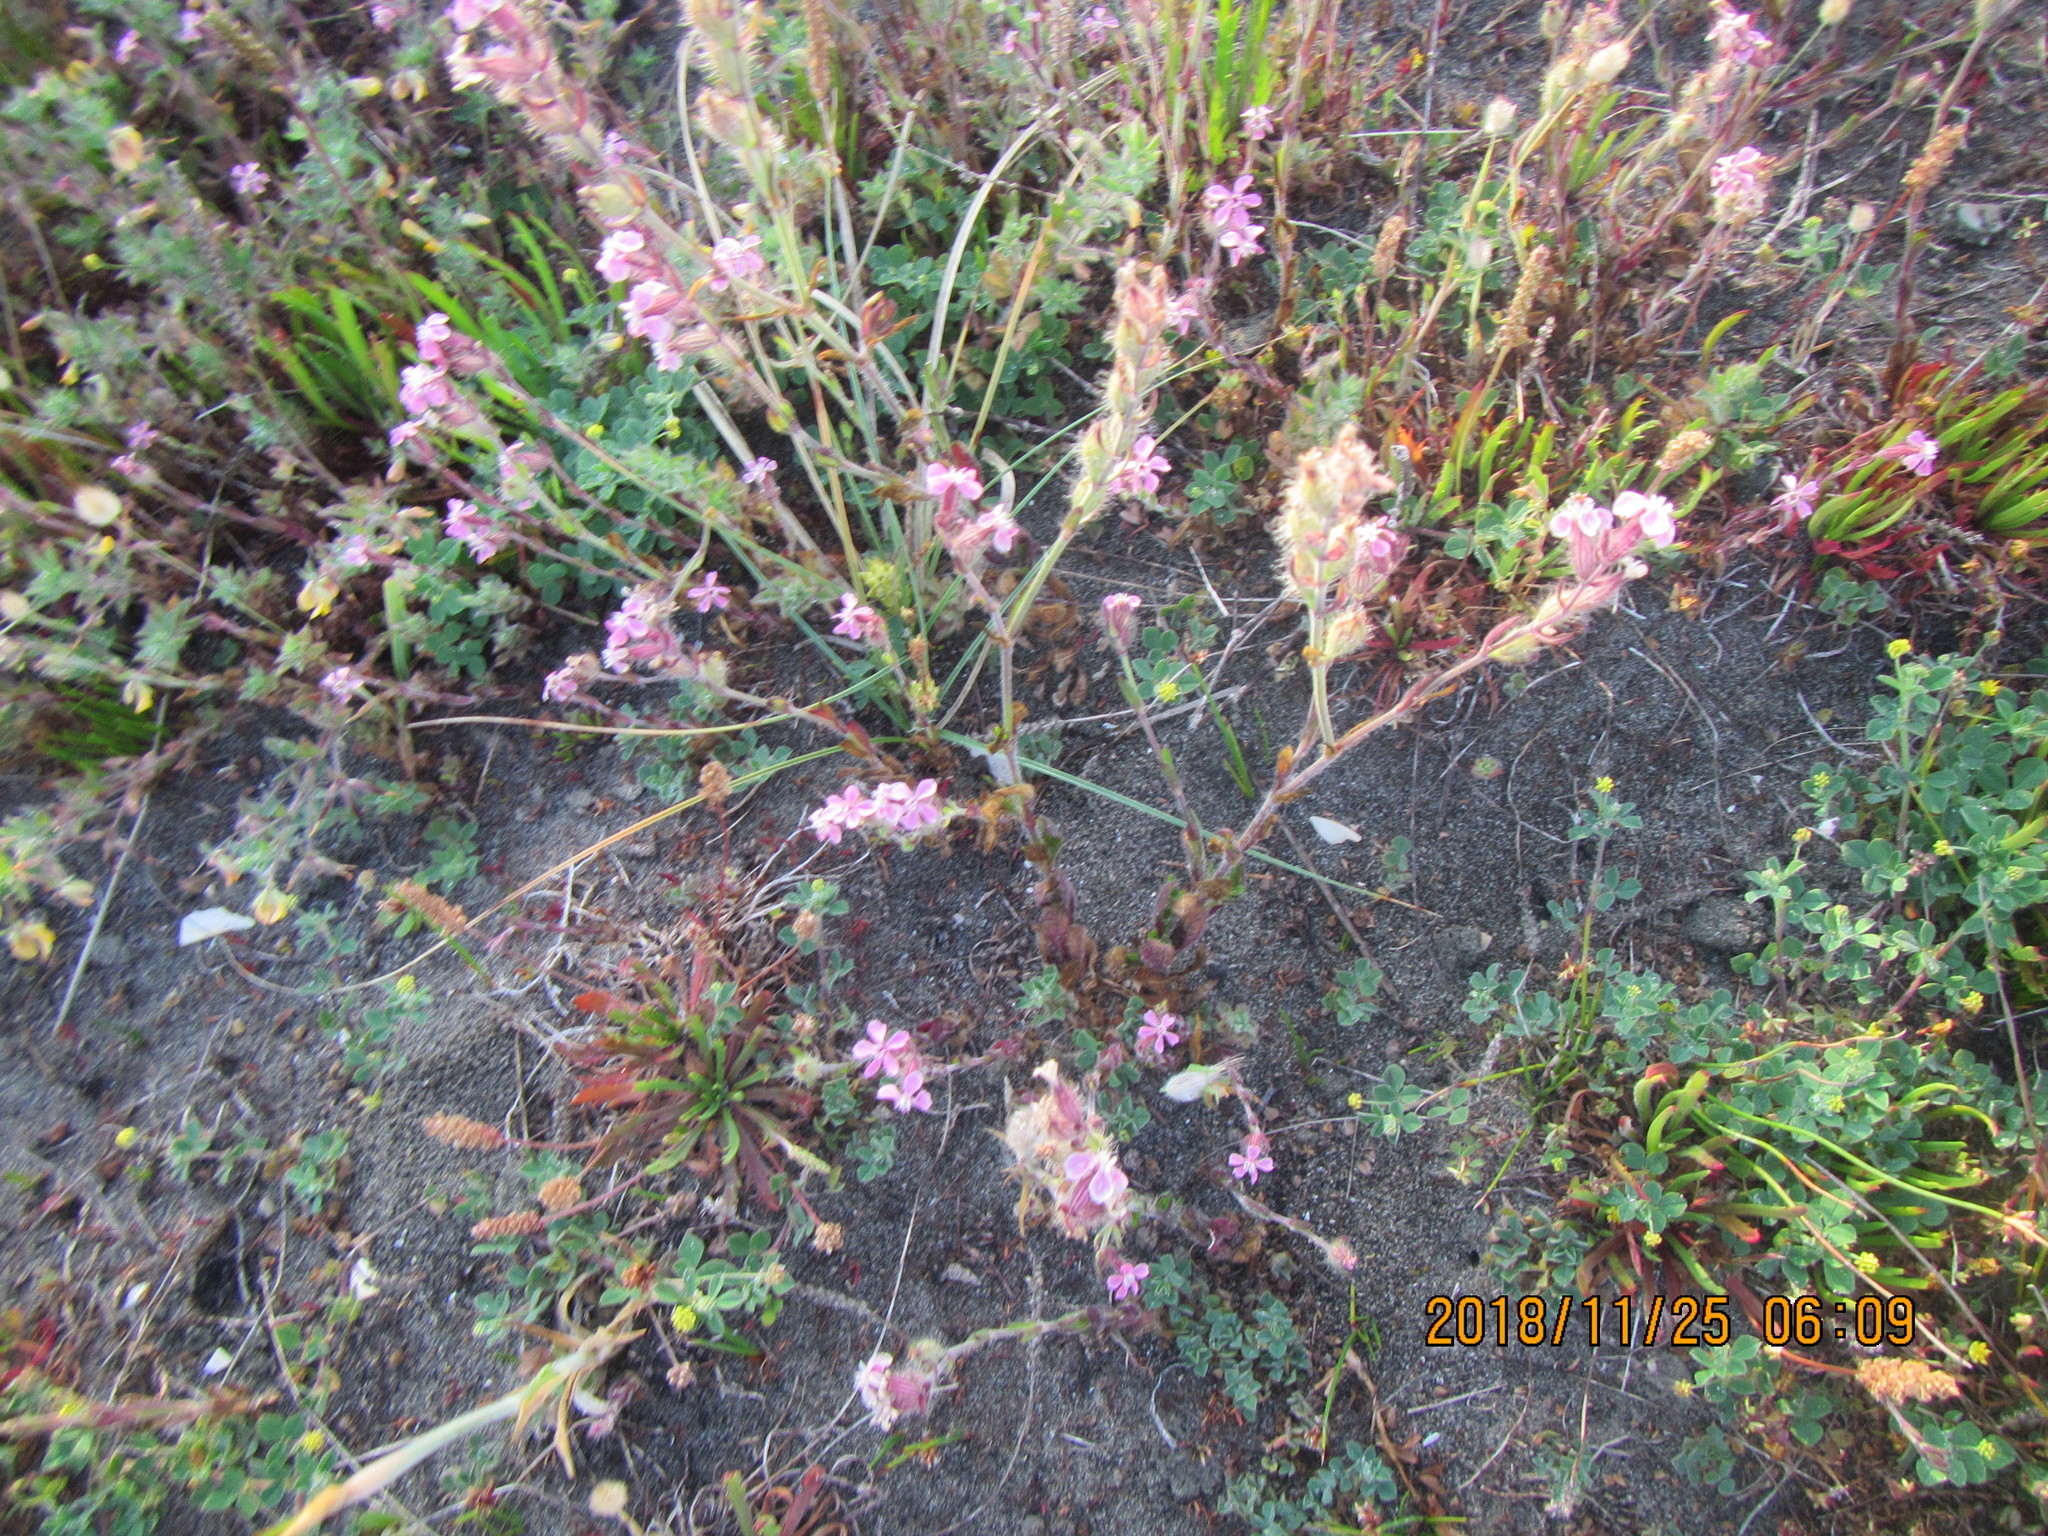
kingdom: Plantae
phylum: Tracheophyta
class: Magnoliopsida
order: Caryophyllales
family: Caryophyllaceae
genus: Silene
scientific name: Silene gallica
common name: Small-flowered catchfly
